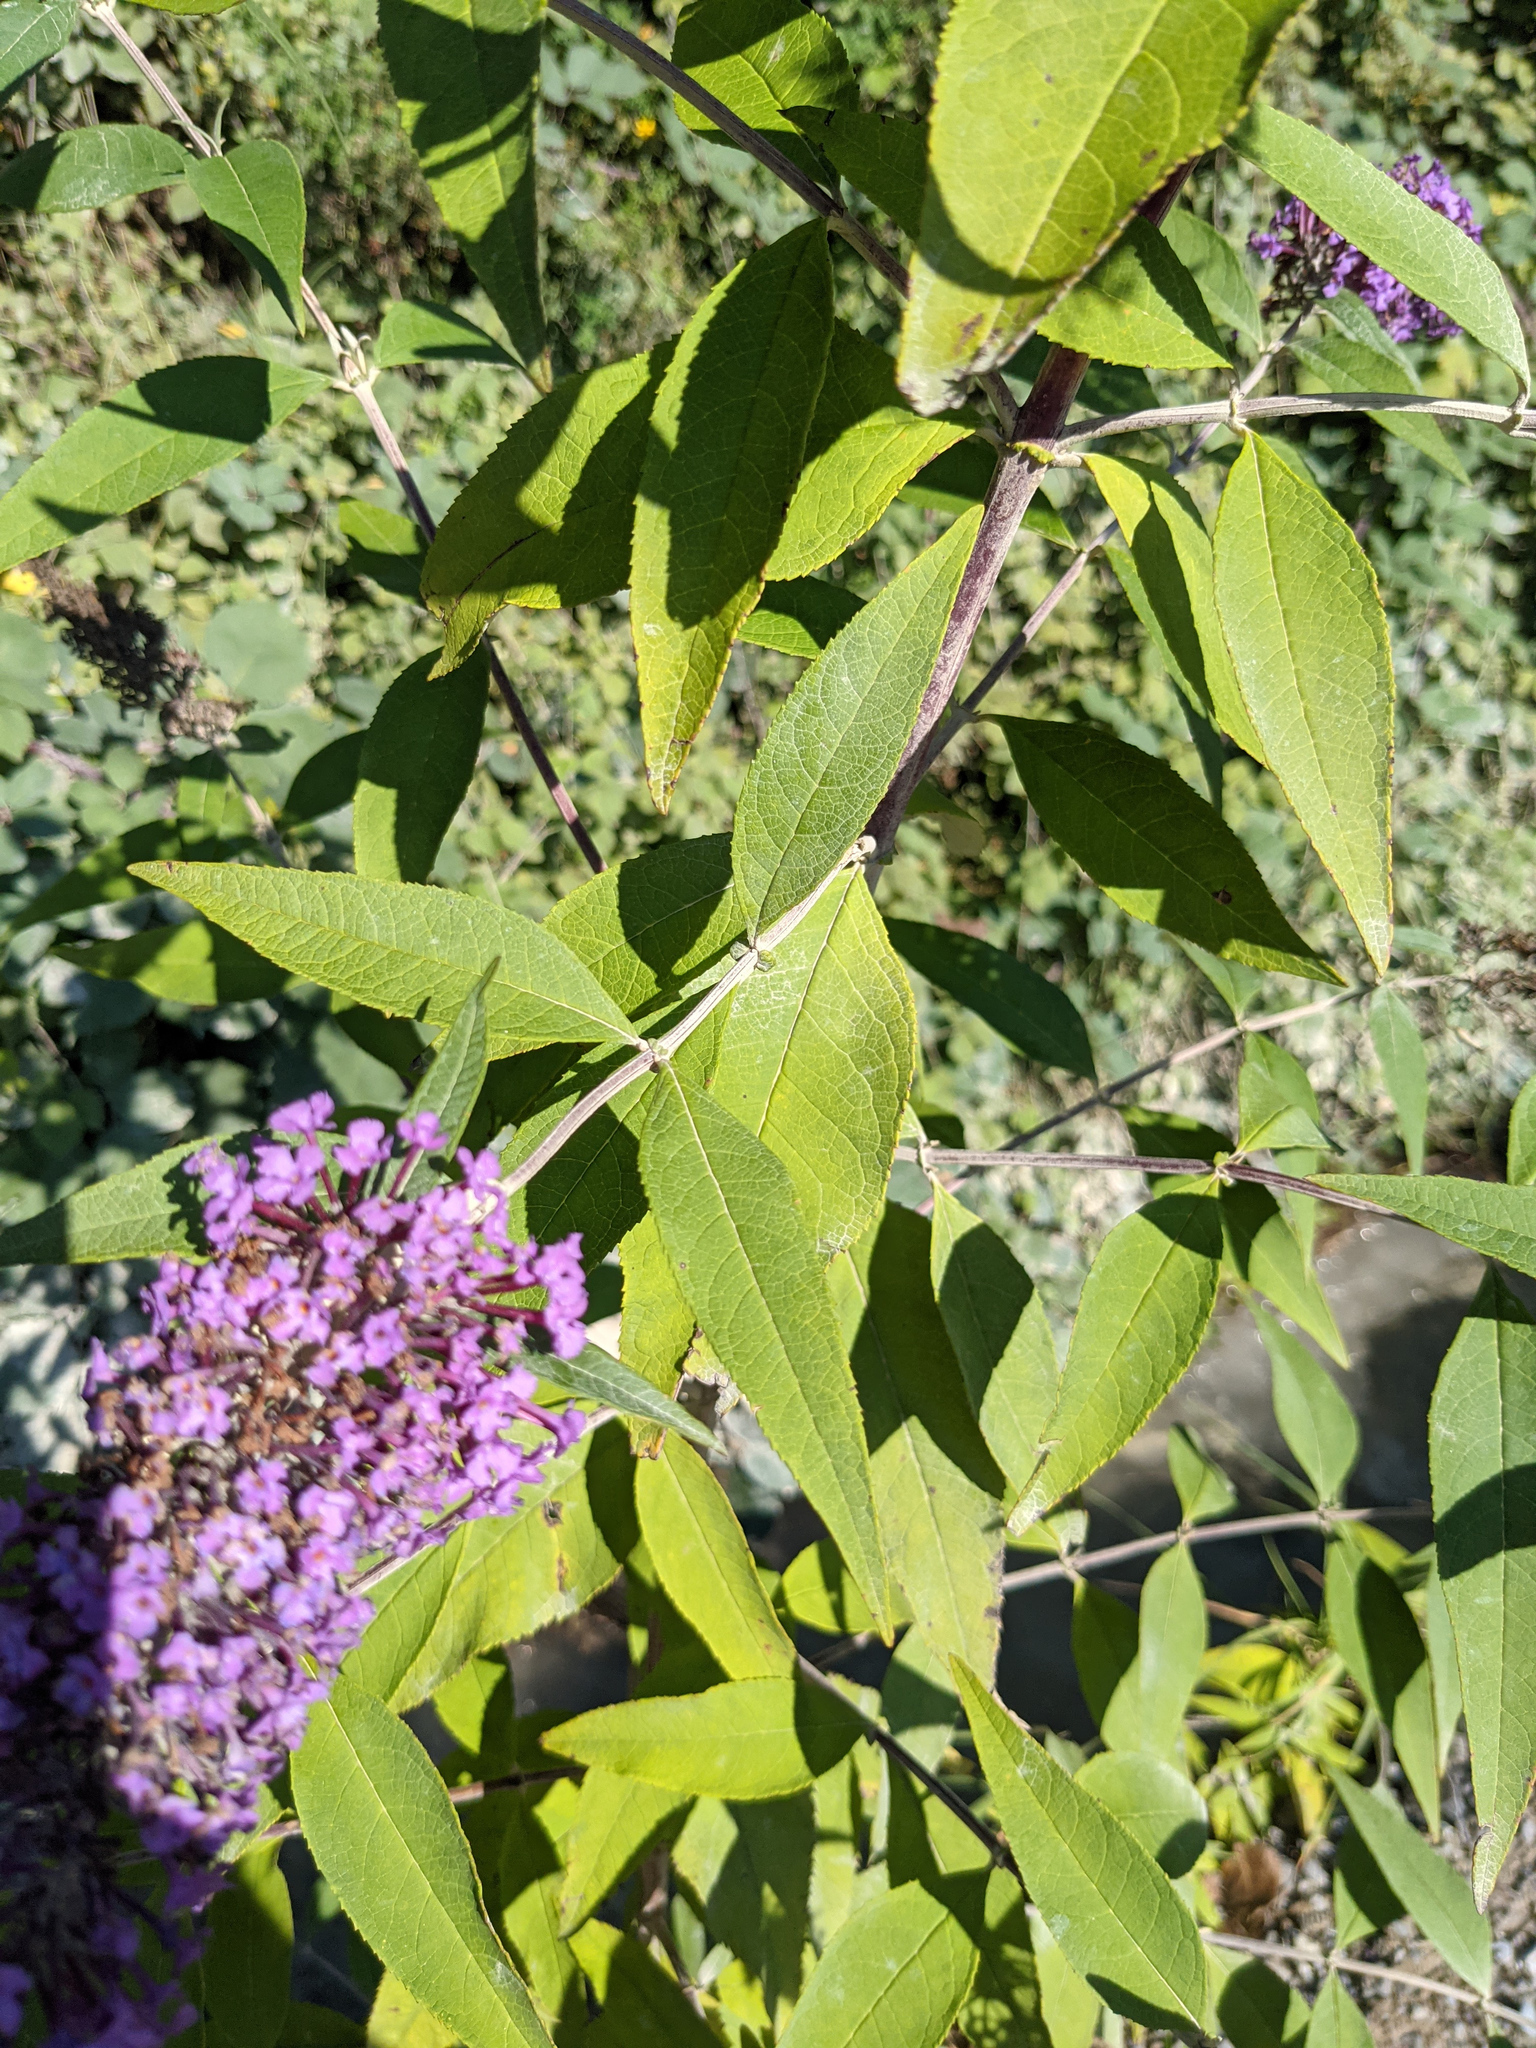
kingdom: Plantae
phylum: Tracheophyta
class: Magnoliopsida
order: Lamiales
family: Scrophulariaceae
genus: Buddleja
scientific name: Buddleja davidii
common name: Butterfly-bush
